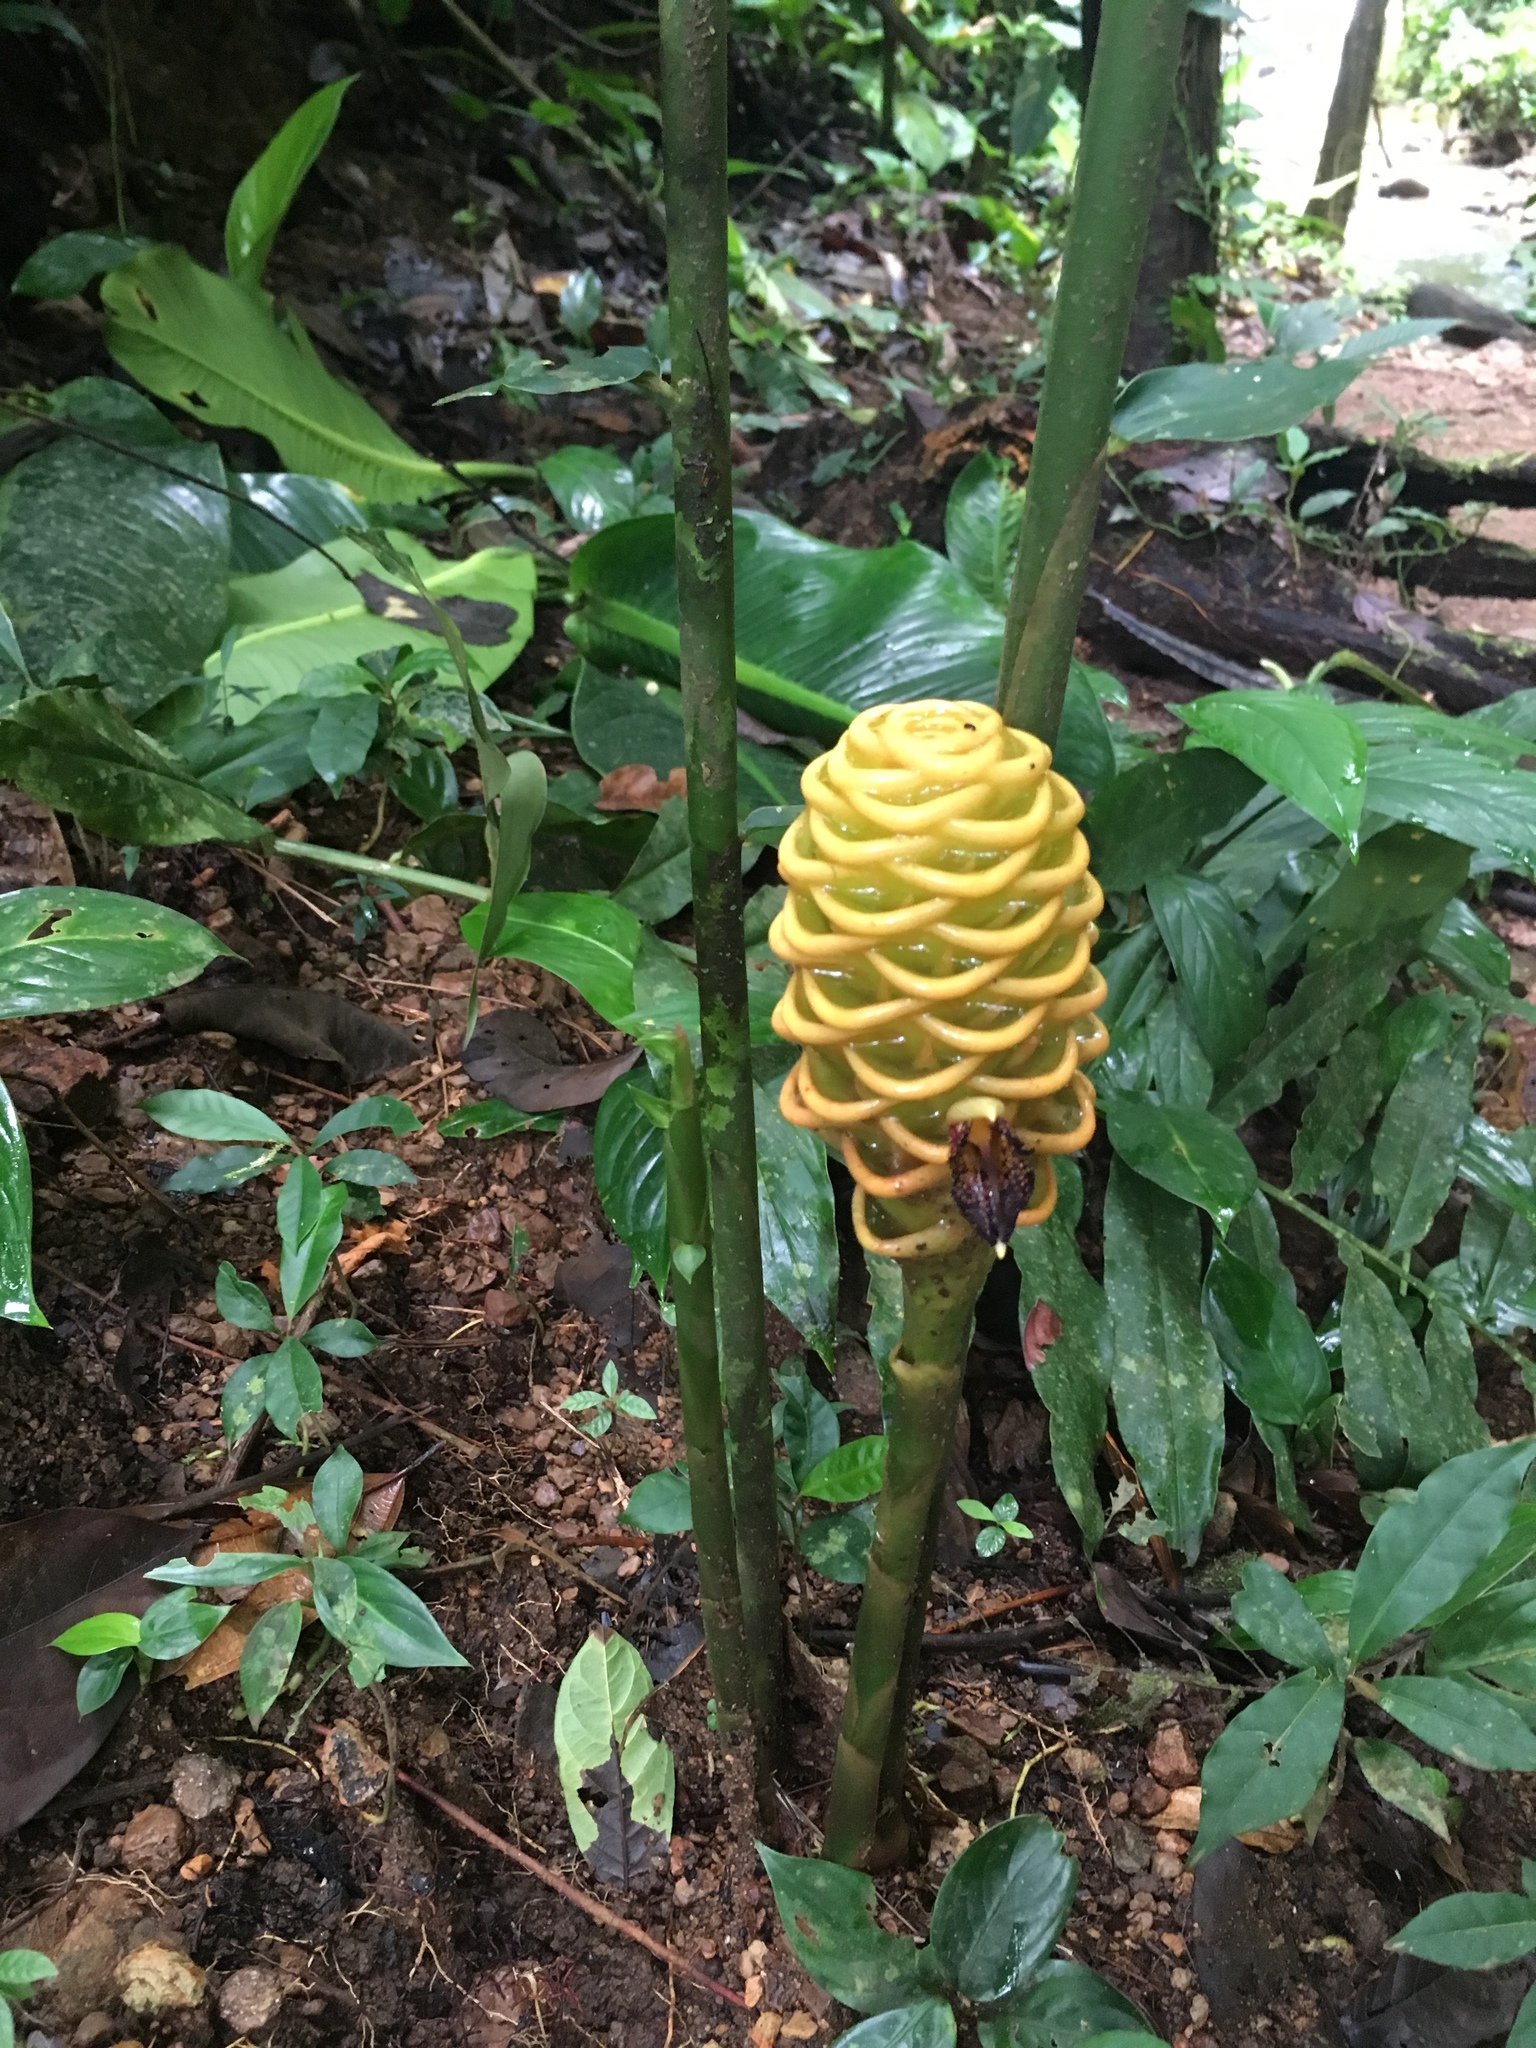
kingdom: Plantae
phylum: Tracheophyta
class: Liliopsida
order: Zingiberales
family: Zingiberaceae
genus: Zingiber
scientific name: Zingiber spectabile
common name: Beehive ginger
